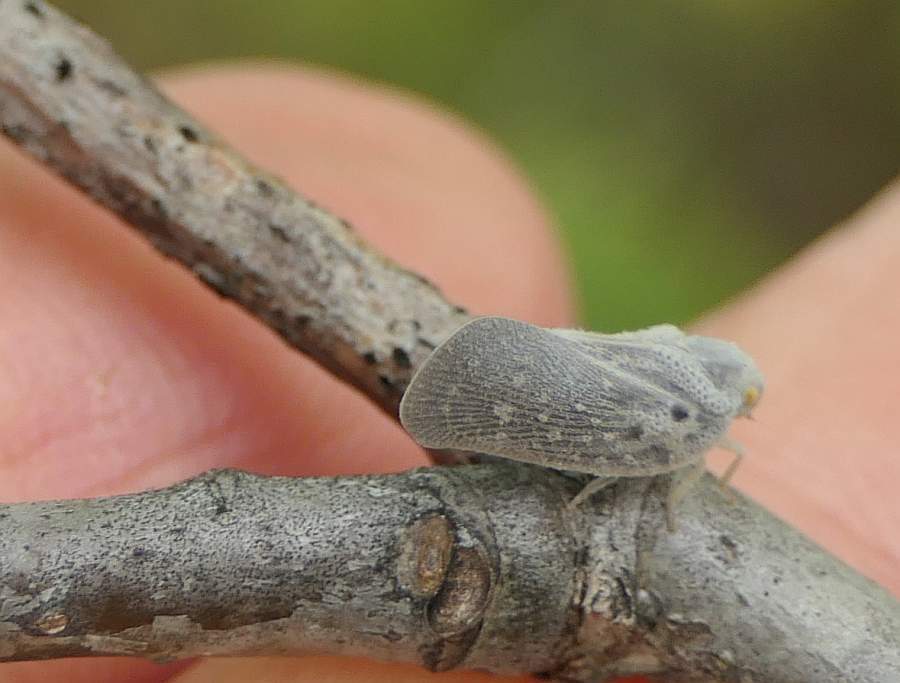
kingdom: Animalia
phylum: Arthropoda
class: Insecta
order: Hemiptera
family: Flatidae
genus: Metcalfa
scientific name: Metcalfa pruinosa
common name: Citrus flatid planthopper
